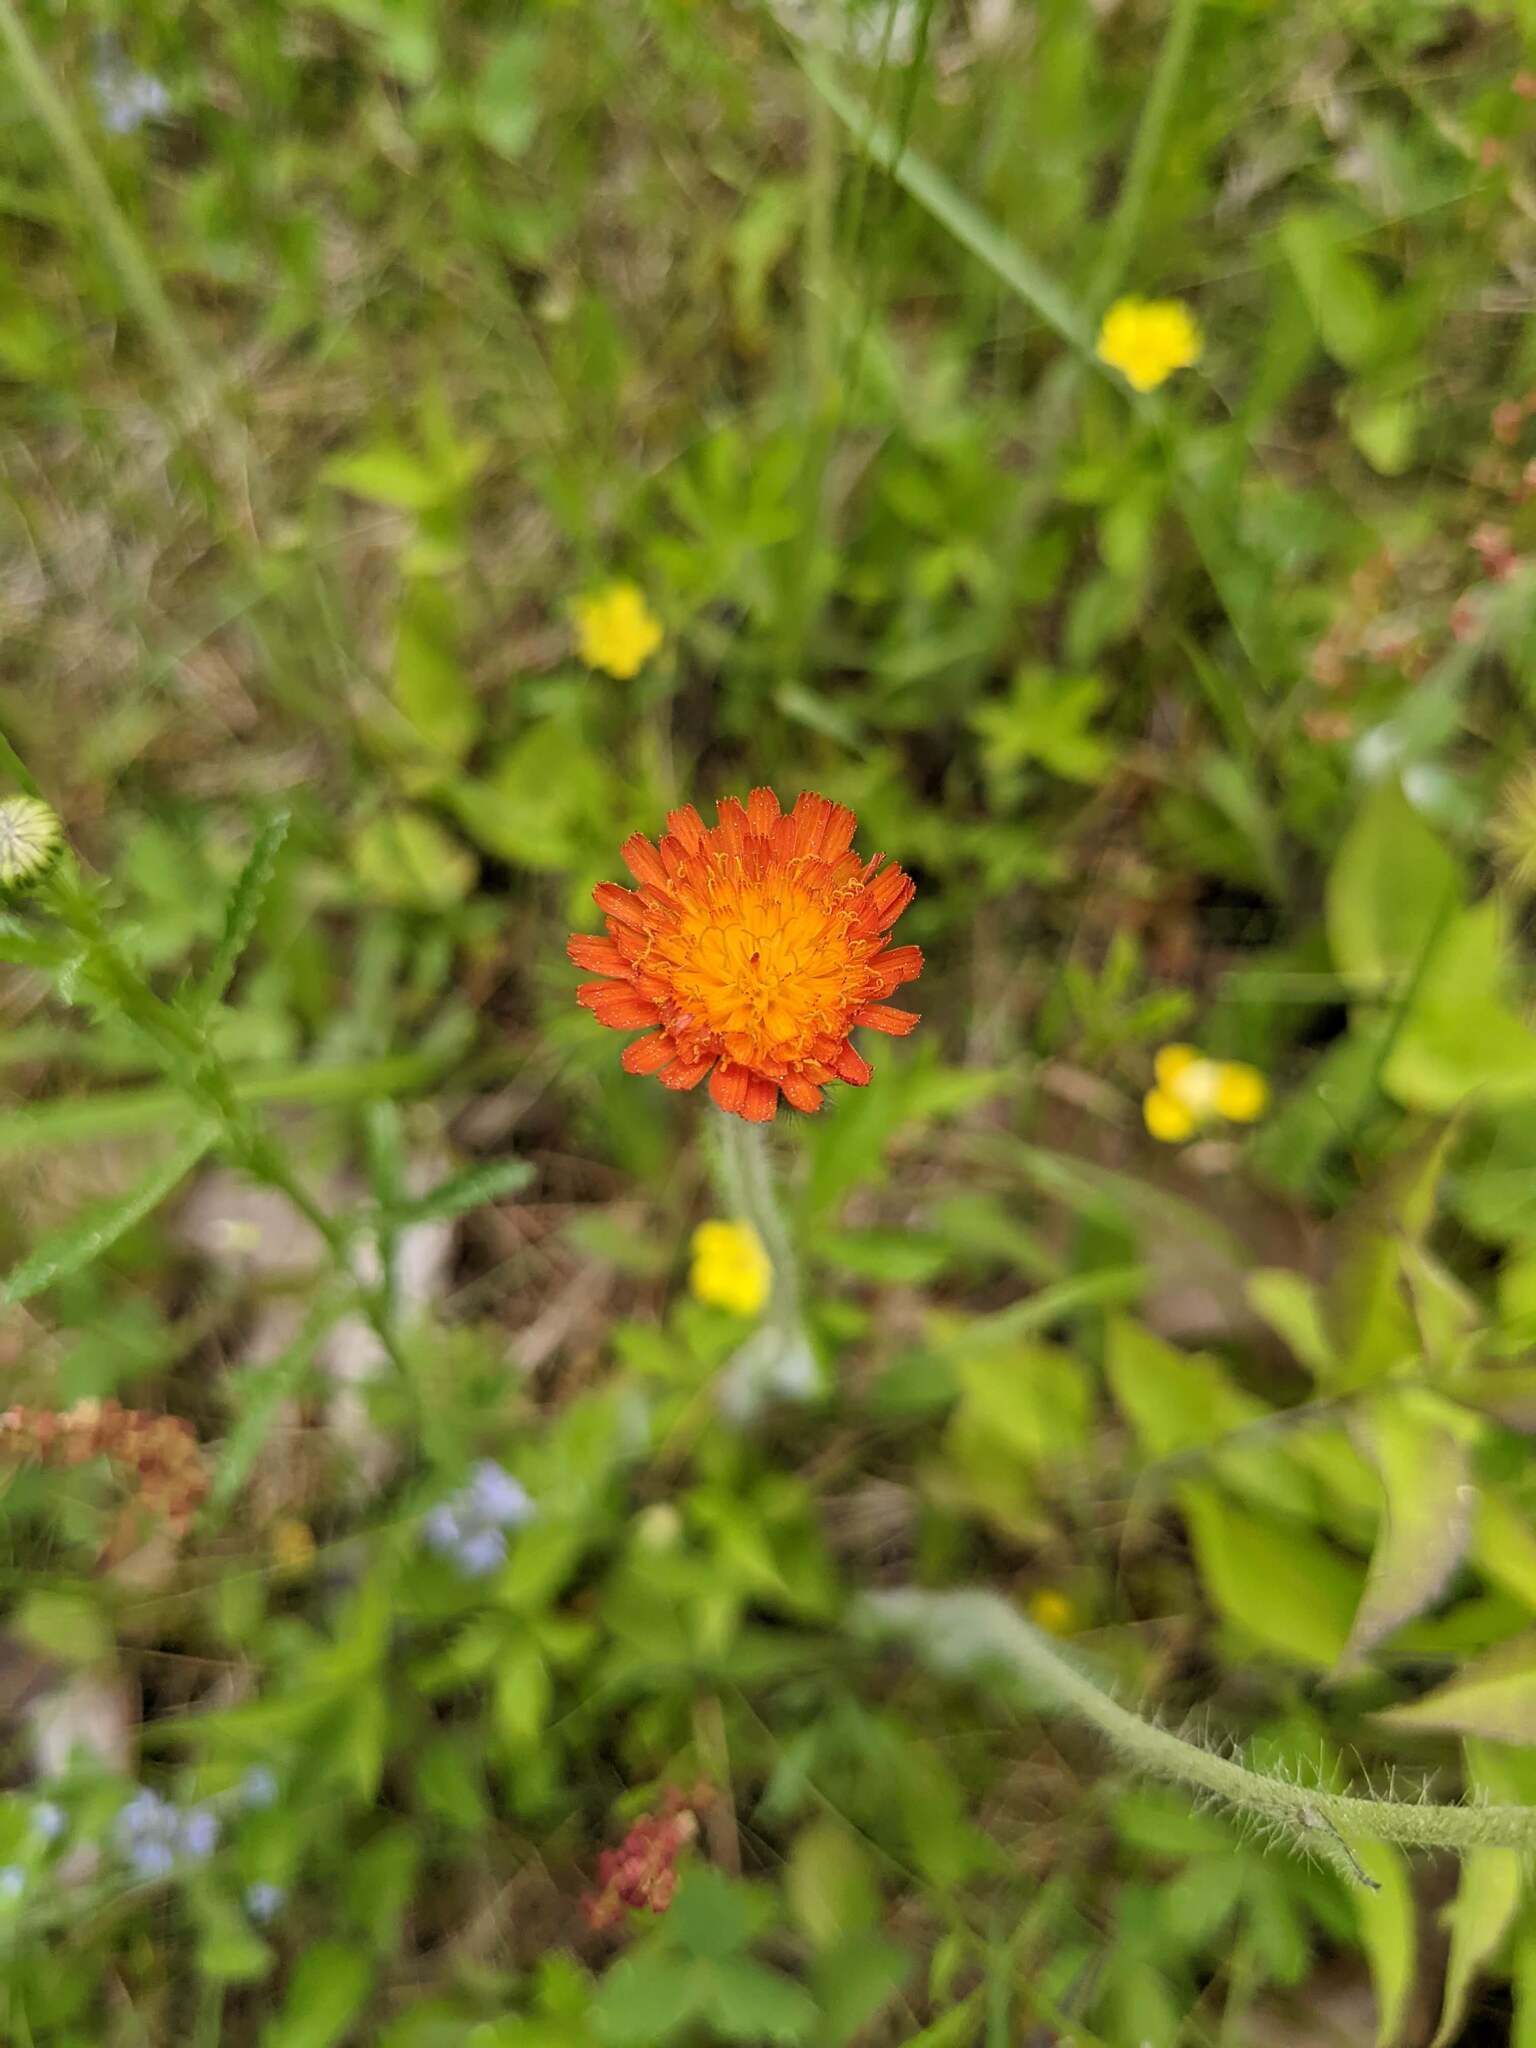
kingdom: Plantae
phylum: Tracheophyta
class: Magnoliopsida
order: Asterales
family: Asteraceae
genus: Pilosella
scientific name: Pilosella aurantiaca
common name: Fox-and-cubs
